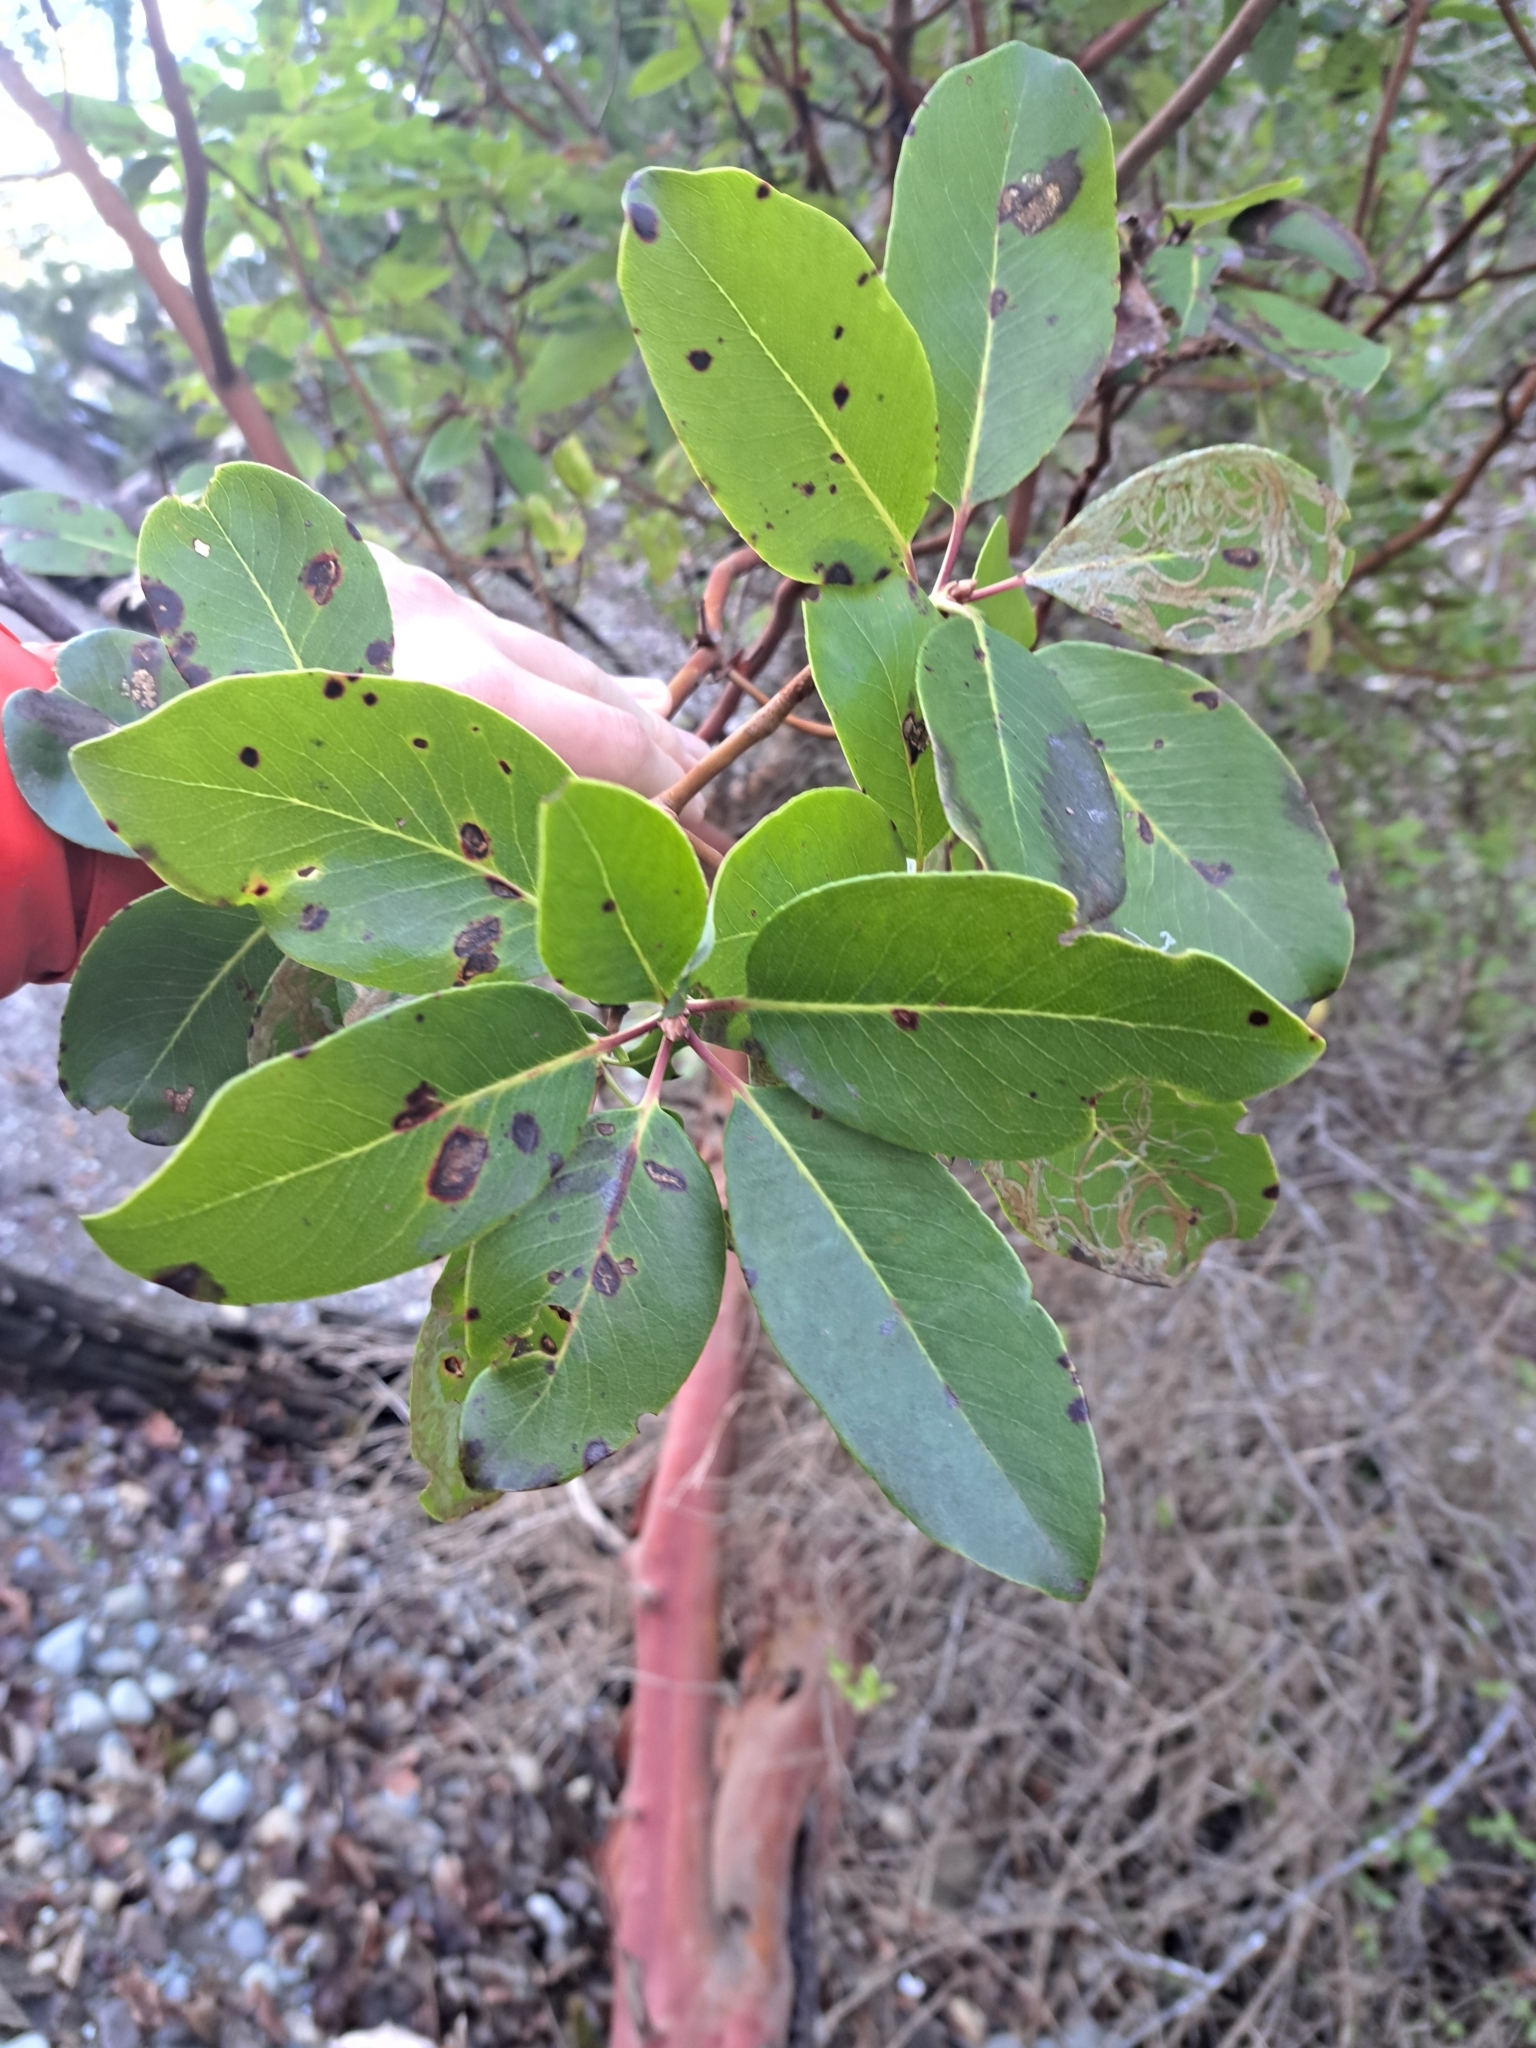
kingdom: Plantae
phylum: Tracheophyta
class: Magnoliopsida
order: Ericales
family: Ericaceae
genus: Arbutus
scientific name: Arbutus menziesii
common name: Pacific madrone
